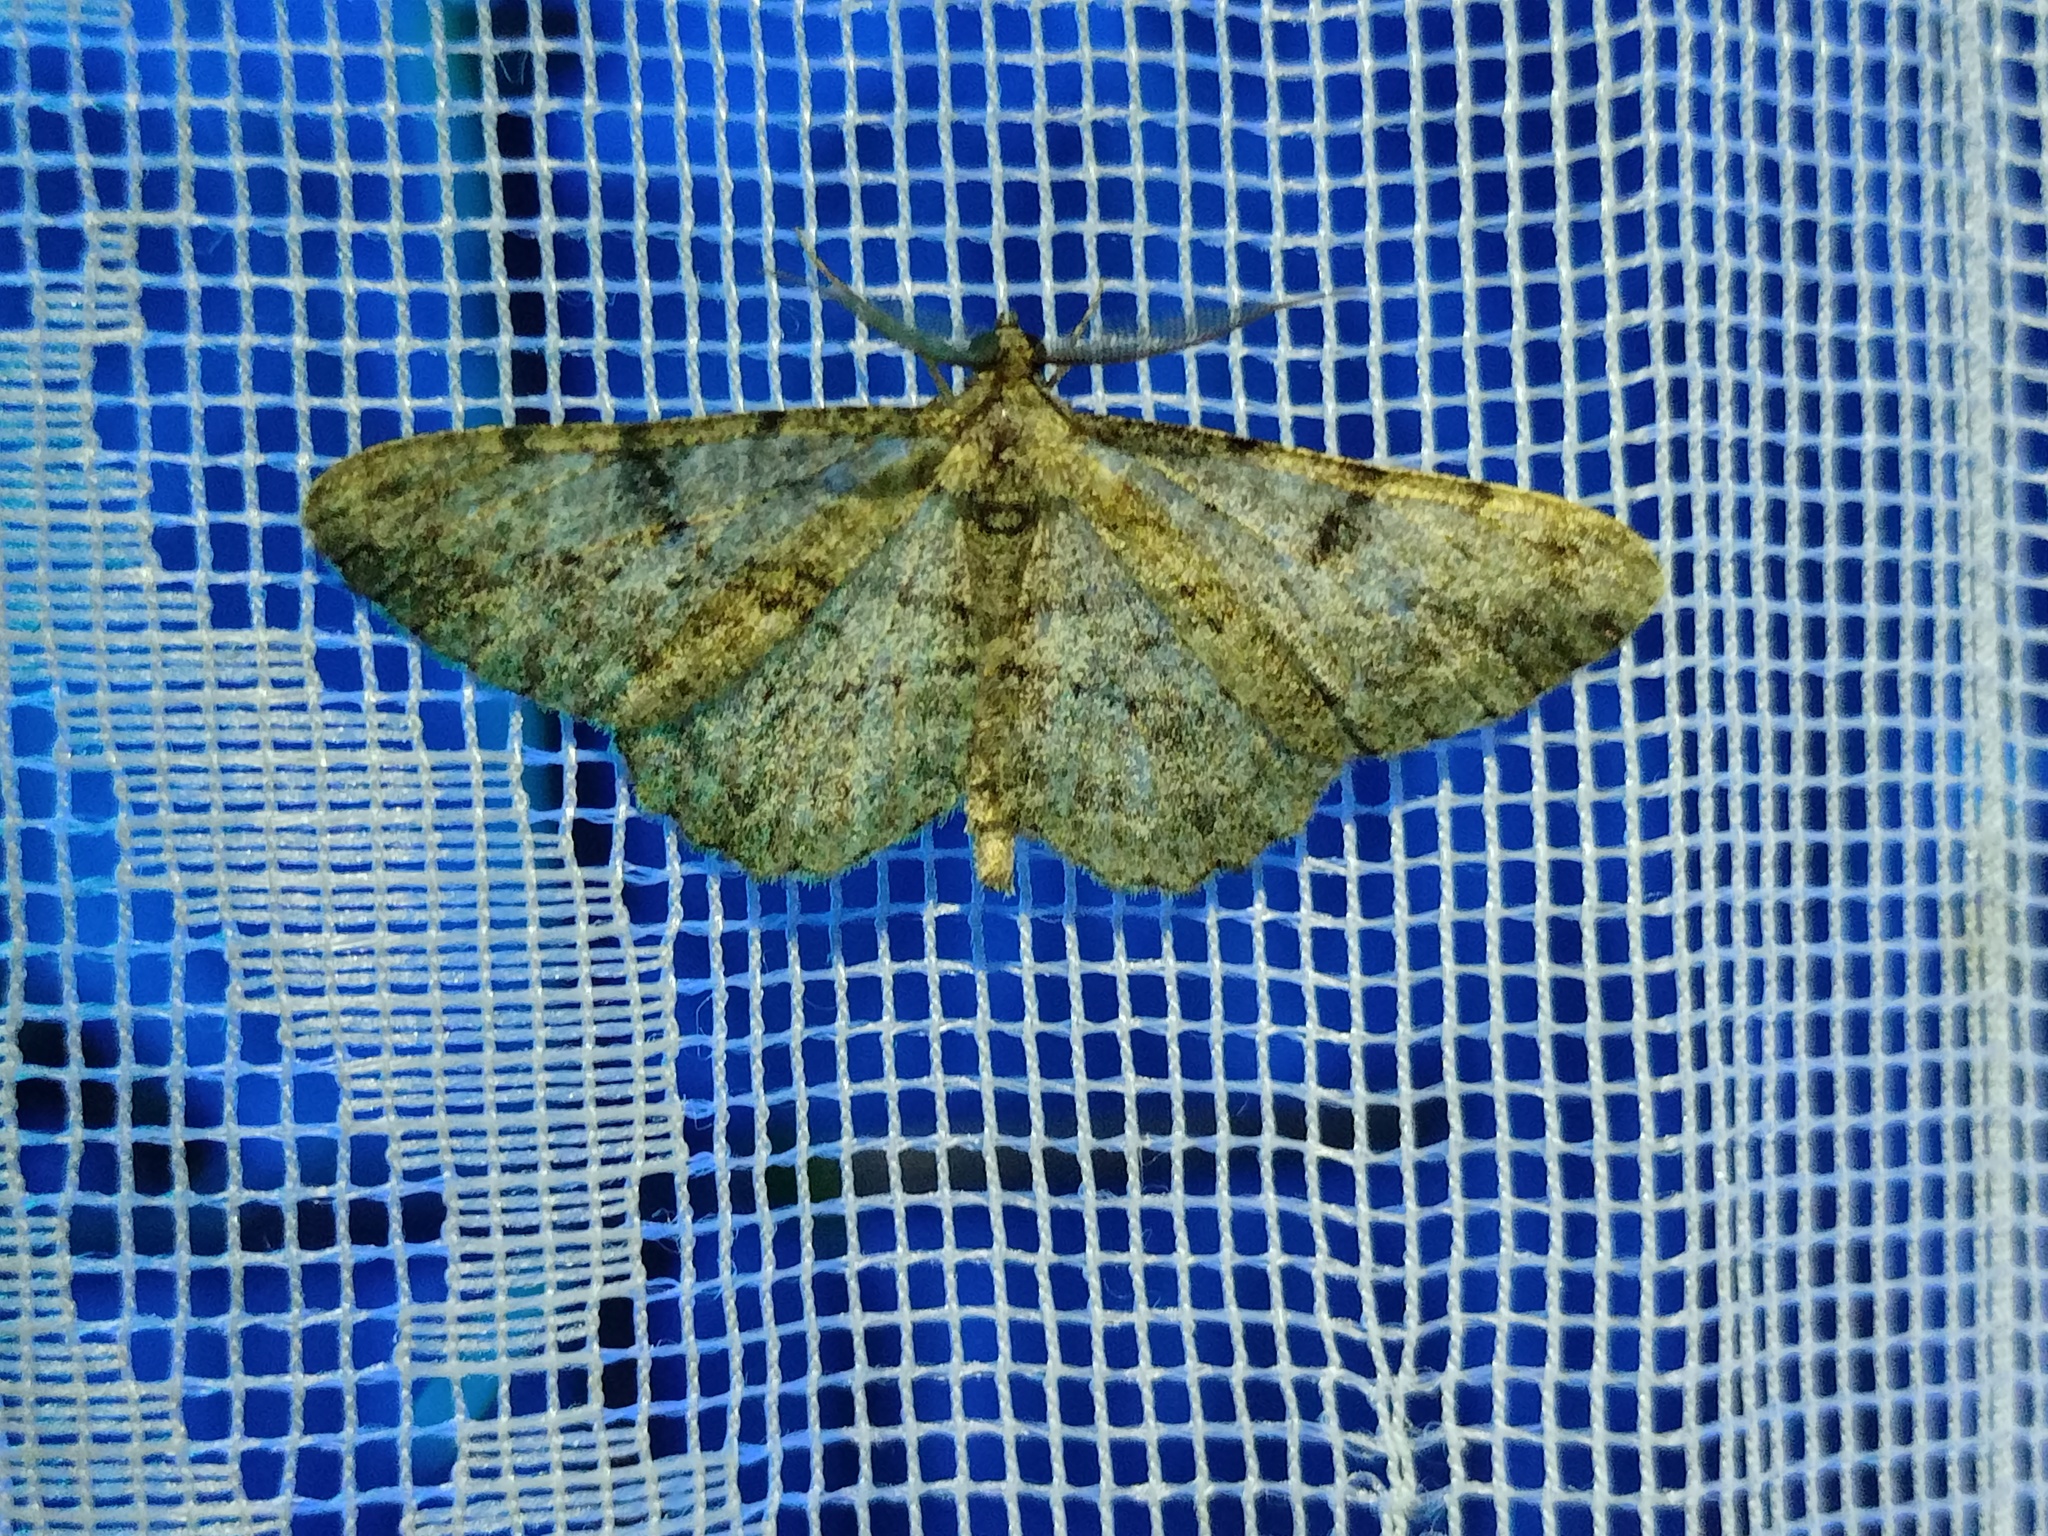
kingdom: Animalia
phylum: Arthropoda
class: Insecta
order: Lepidoptera
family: Geometridae
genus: Peribatodes
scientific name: Peribatodes rhomboidaria
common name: Willow beauty
